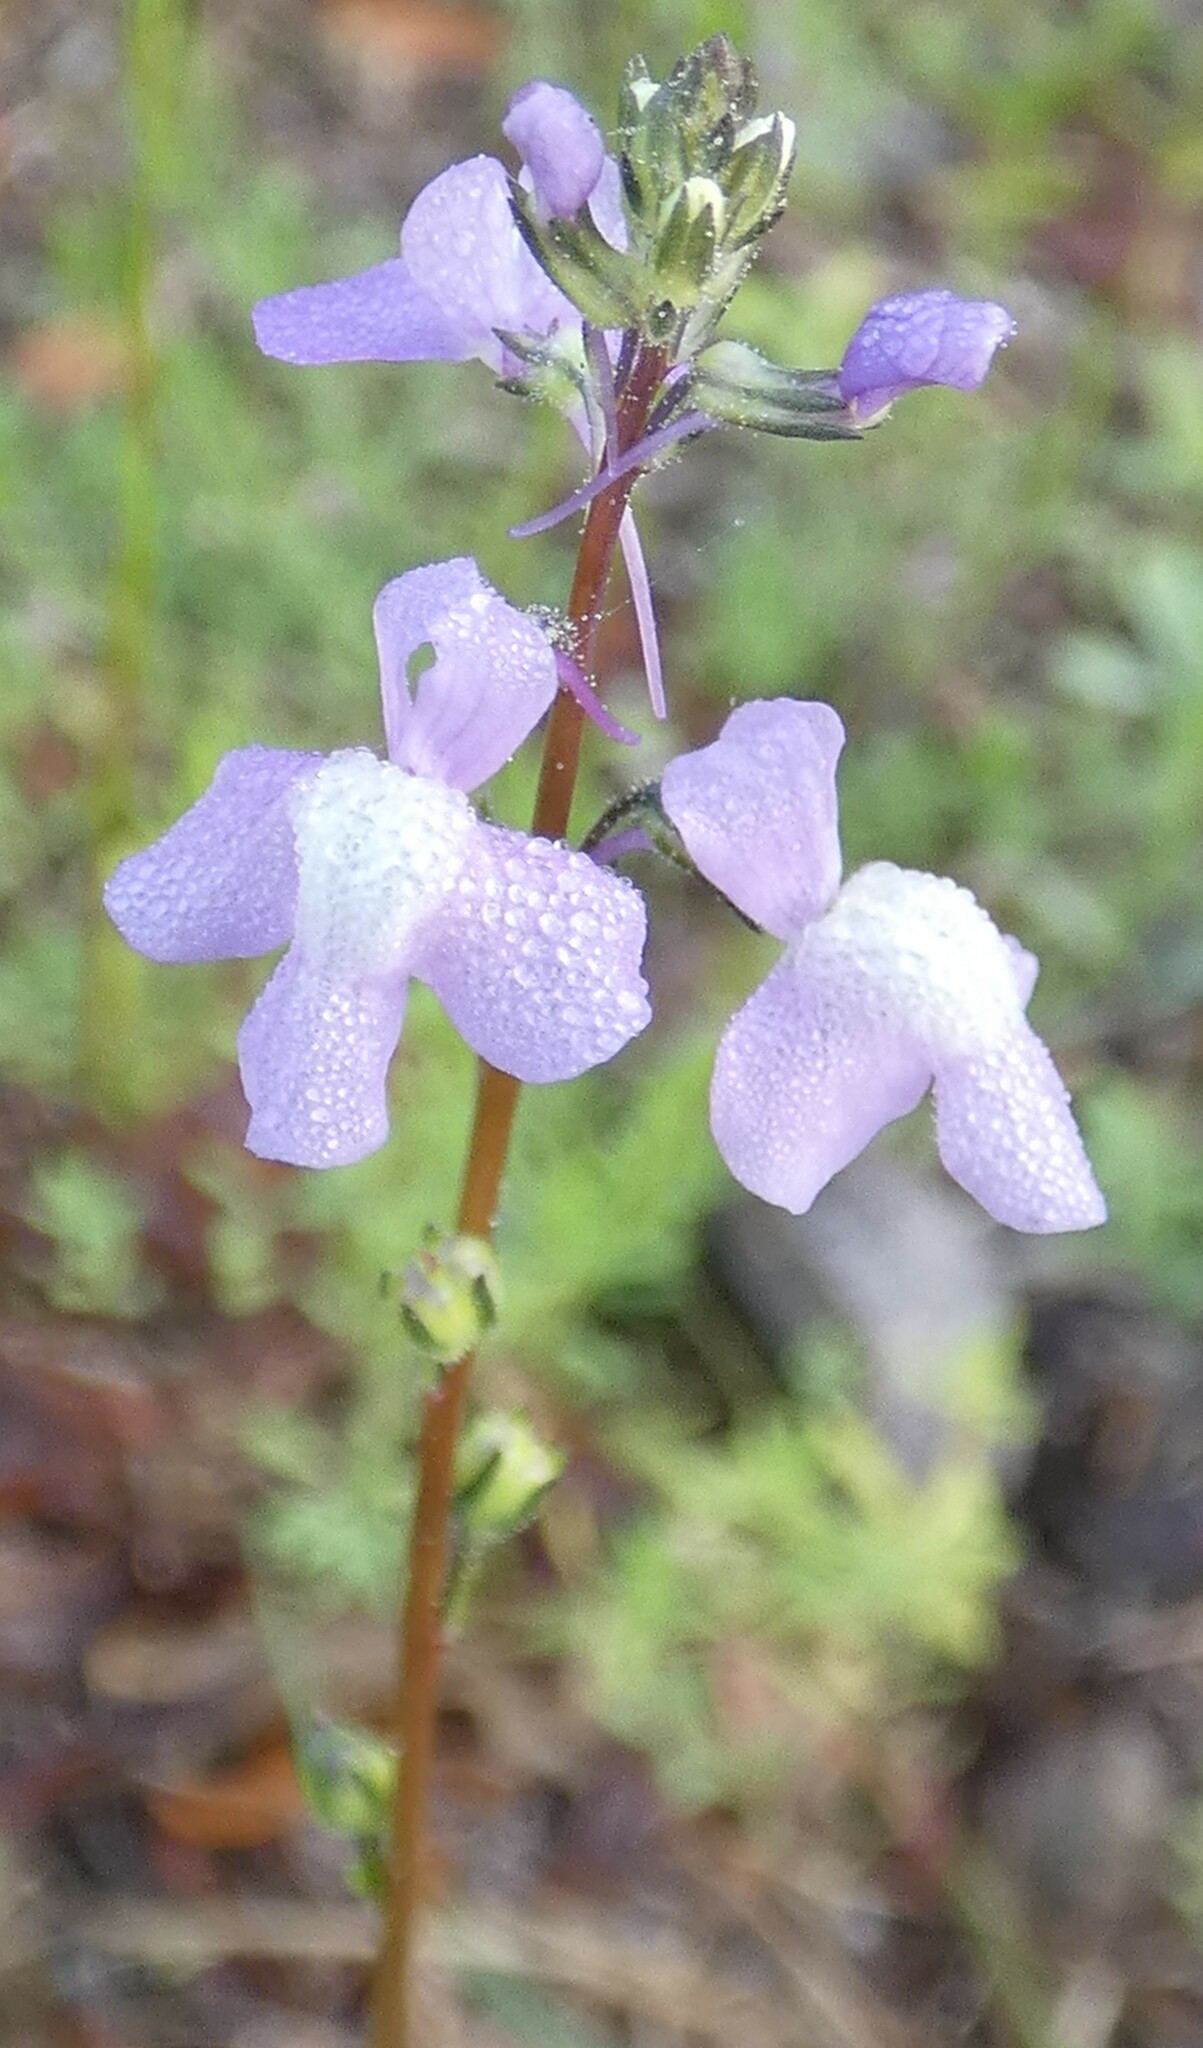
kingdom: Plantae
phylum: Tracheophyta
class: Magnoliopsida
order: Lamiales
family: Plantaginaceae
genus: Nuttallanthus
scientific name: Nuttallanthus canadensis
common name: Blue toadflax
